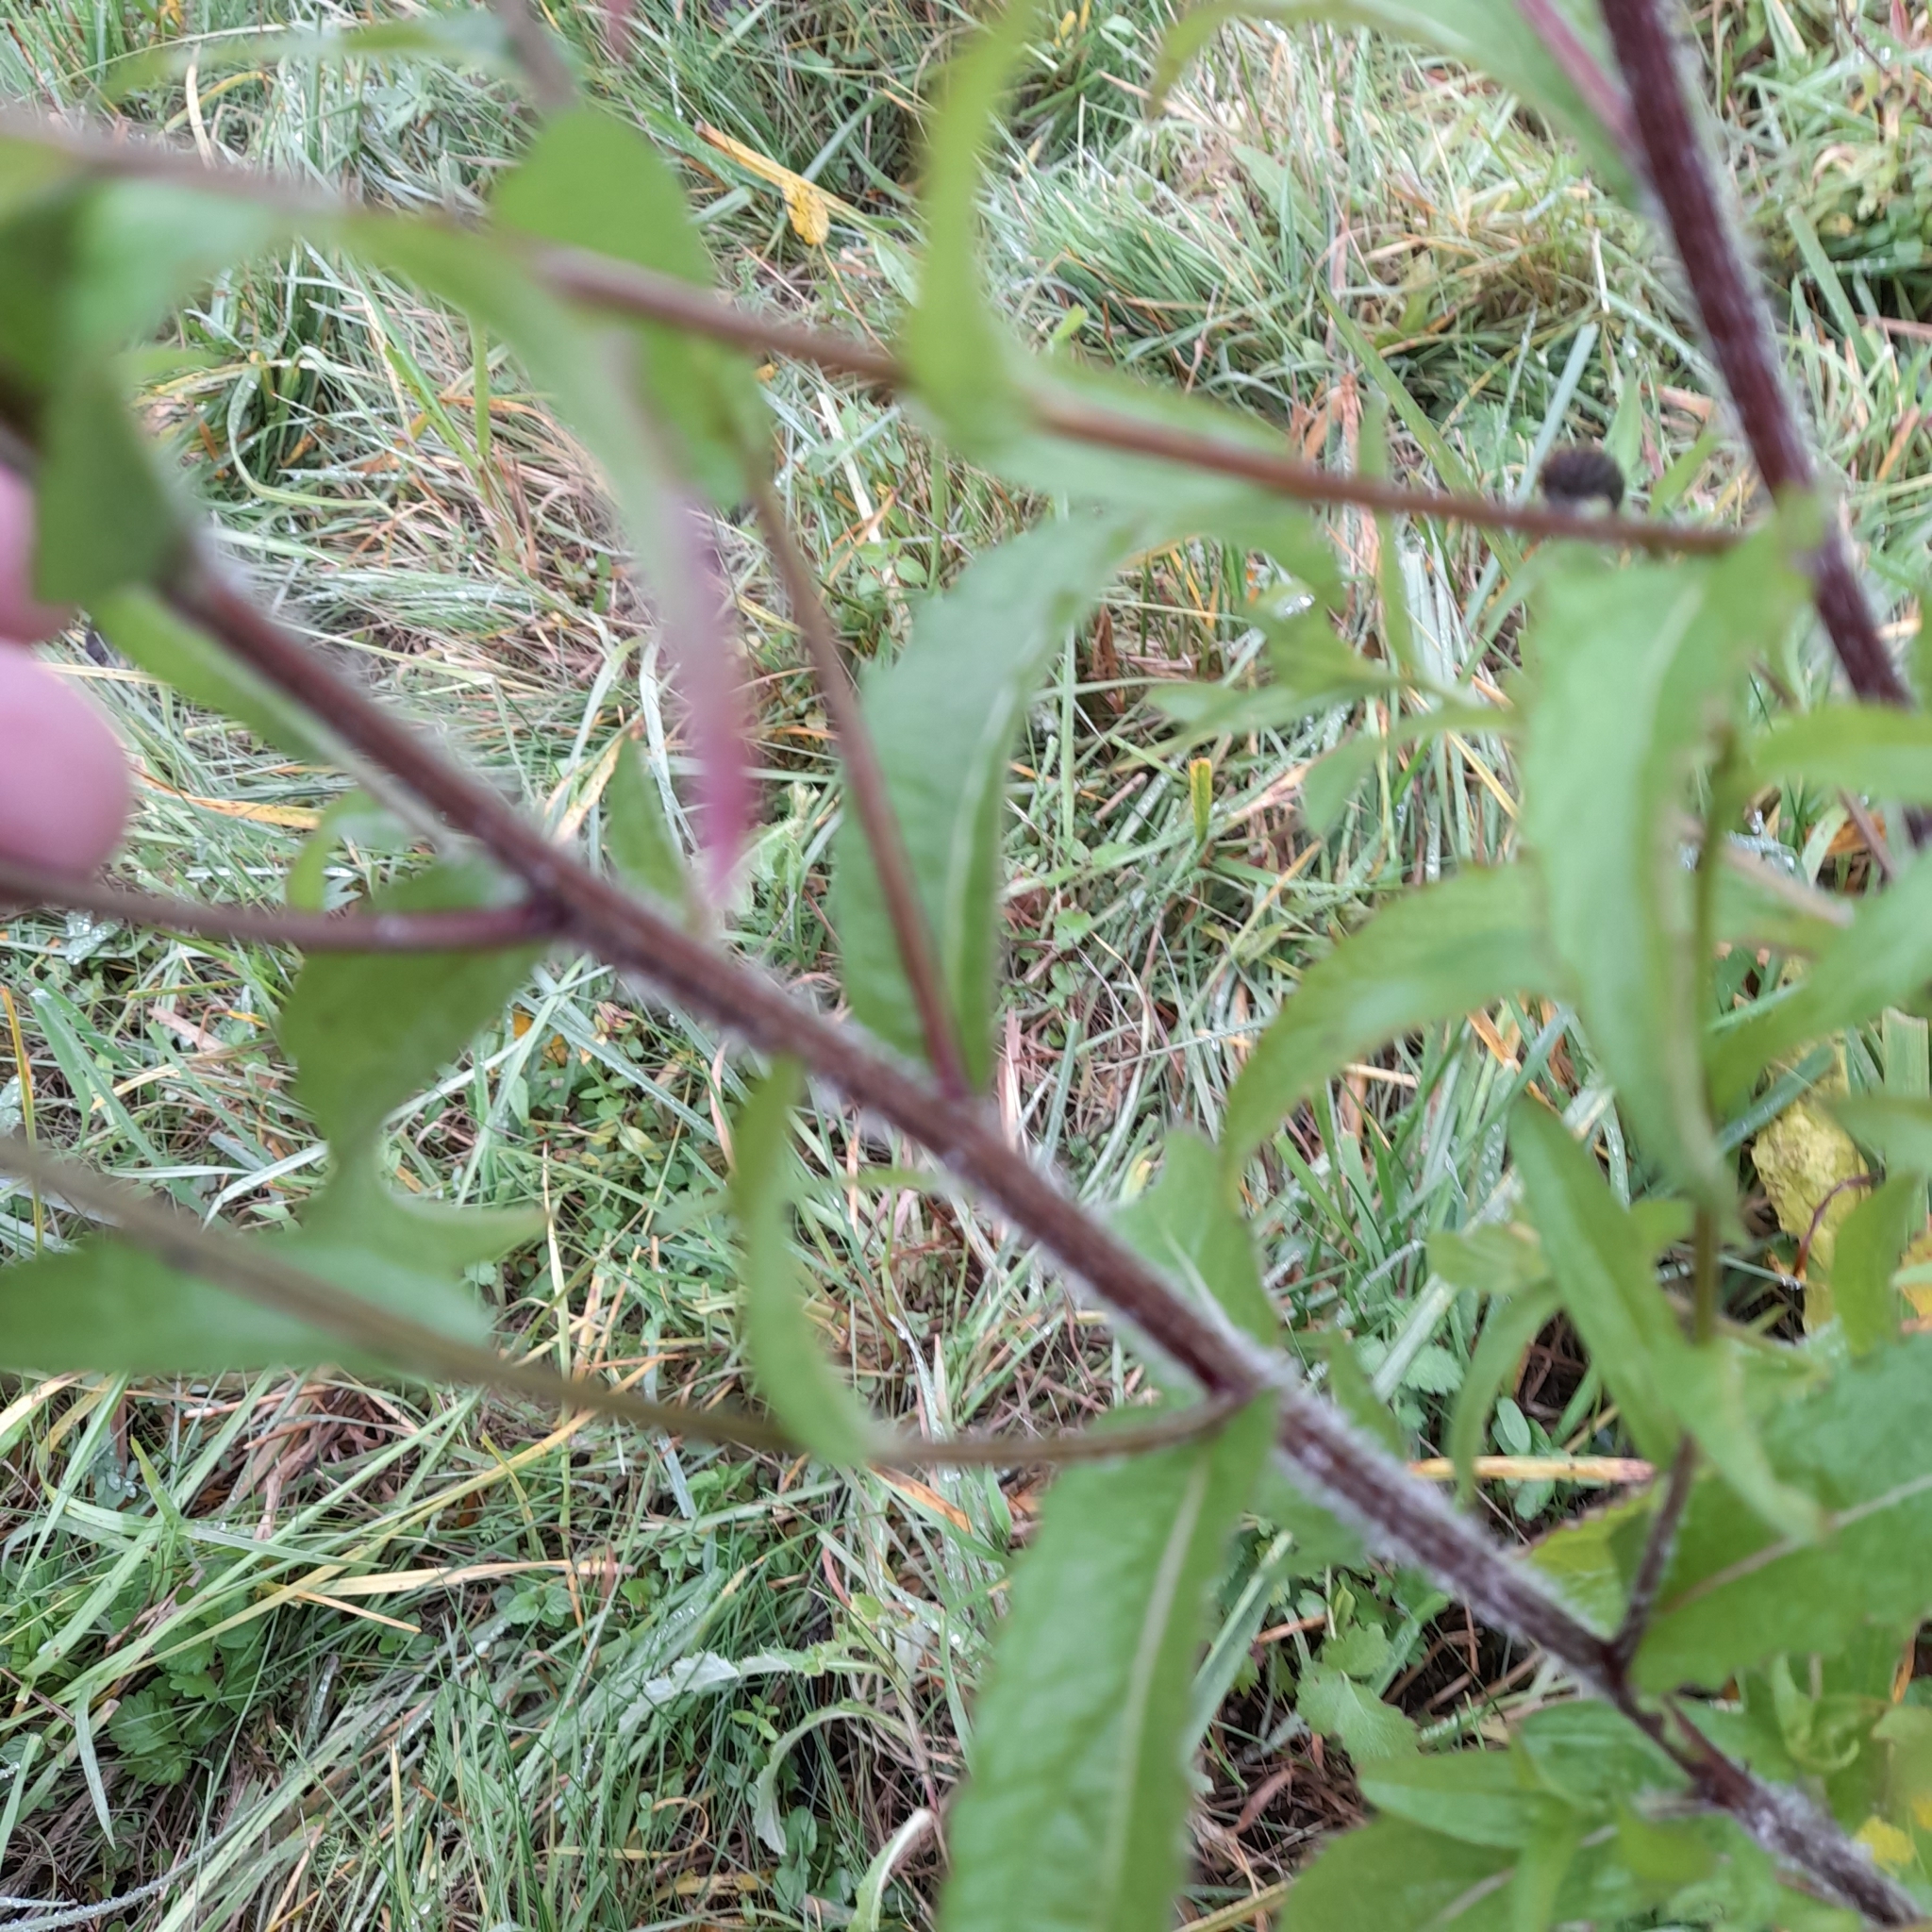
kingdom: Plantae
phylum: Tracheophyta
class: Magnoliopsida
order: Asterales
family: Asteraceae
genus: Centaurea
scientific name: Centaurea phrygia
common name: Wig knapweed
